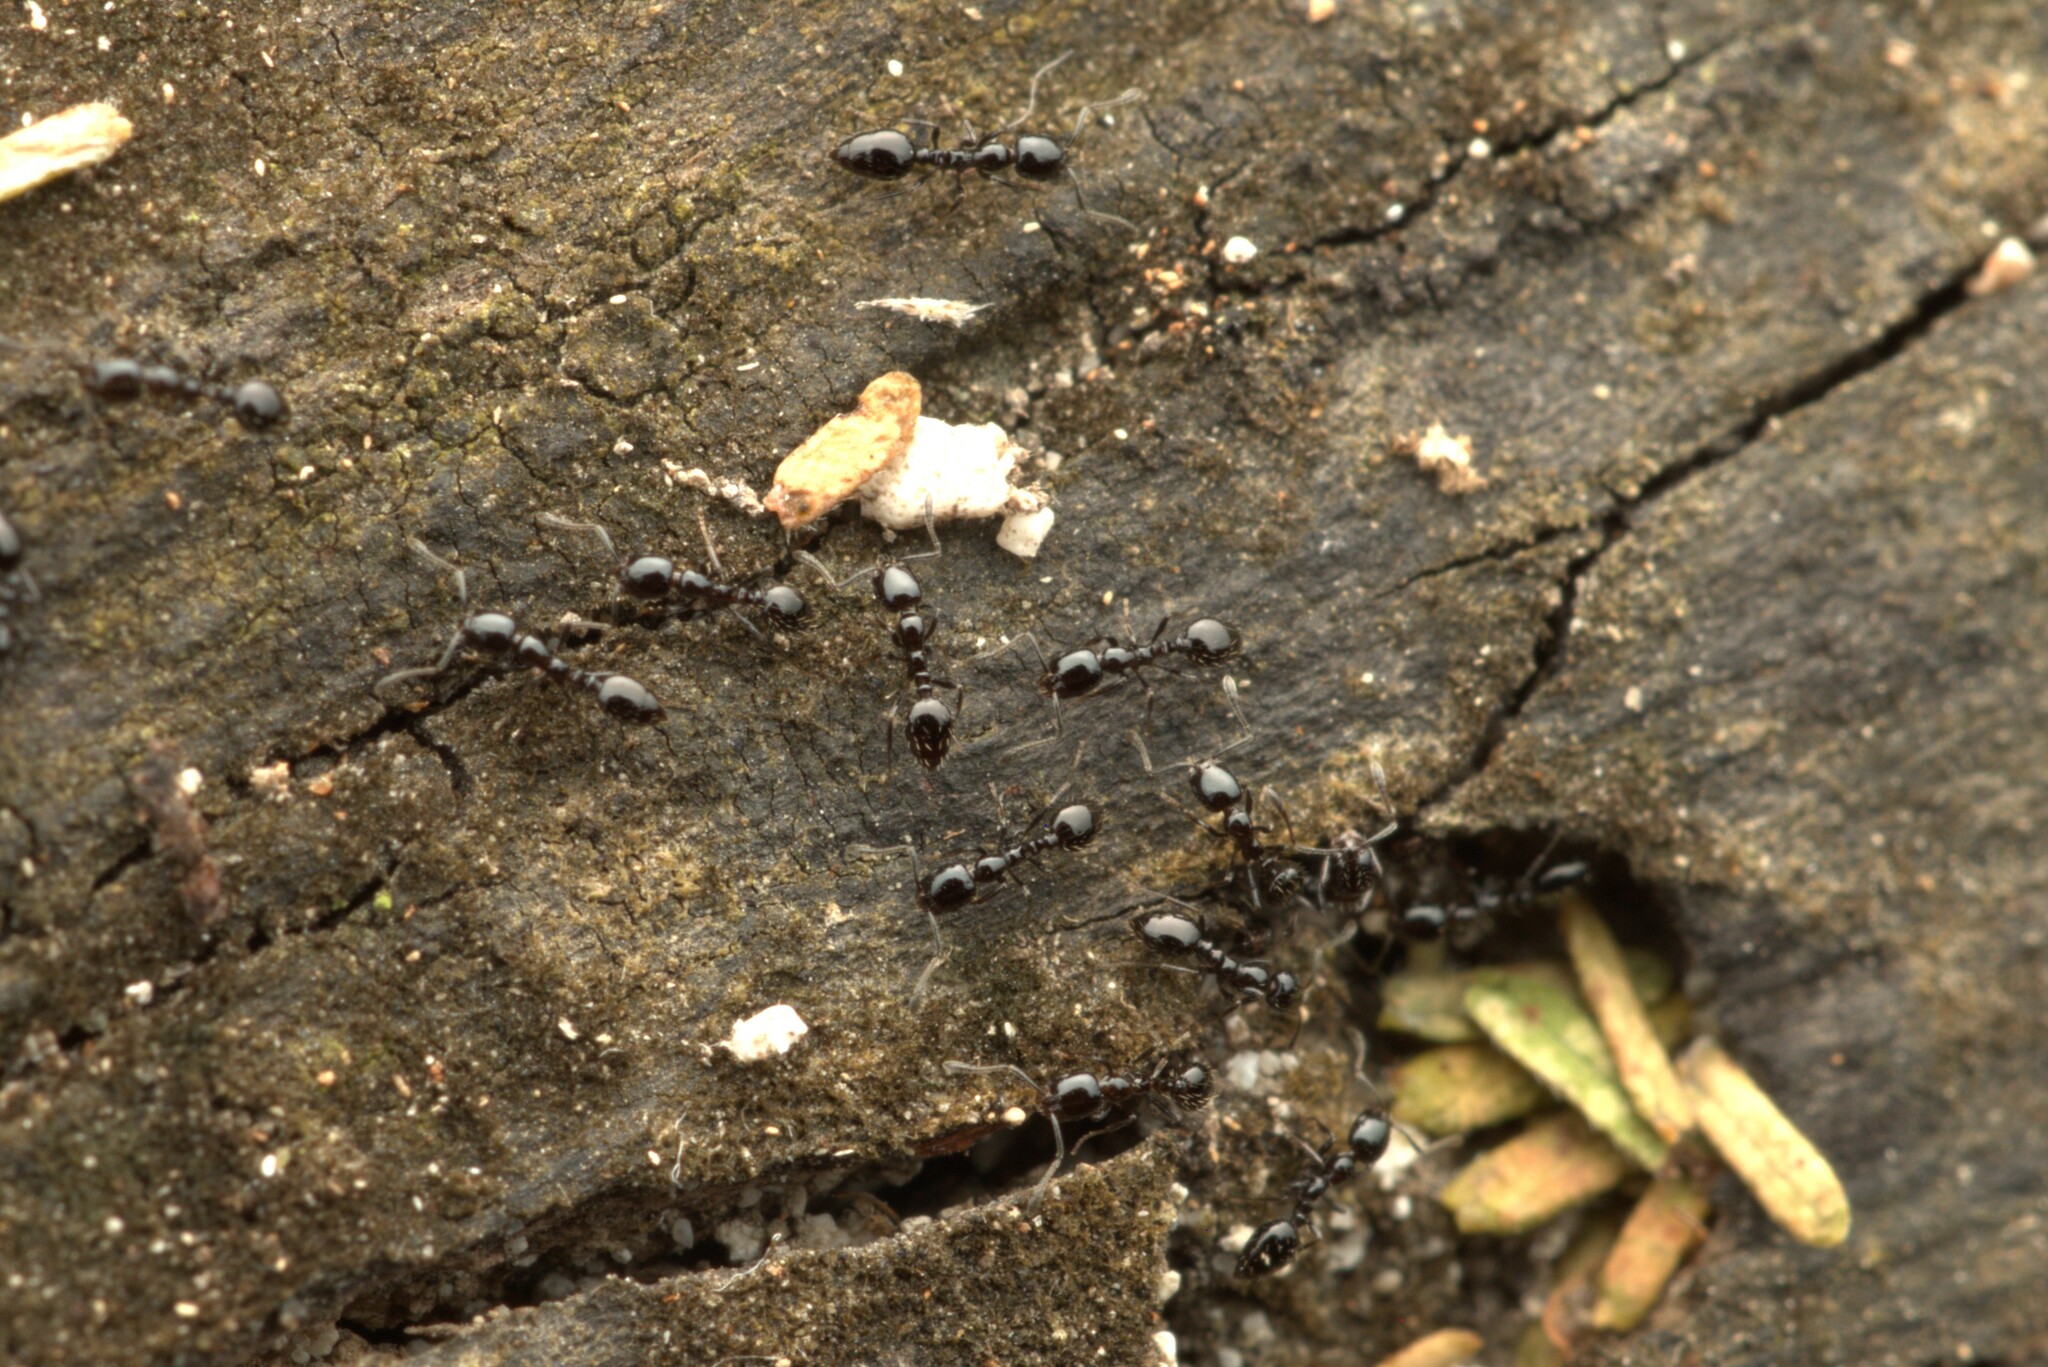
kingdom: Animalia
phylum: Arthropoda
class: Insecta
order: Hymenoptera
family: Formicidae
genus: Monomorium
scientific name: Monomorium ebeninum
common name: Ant
